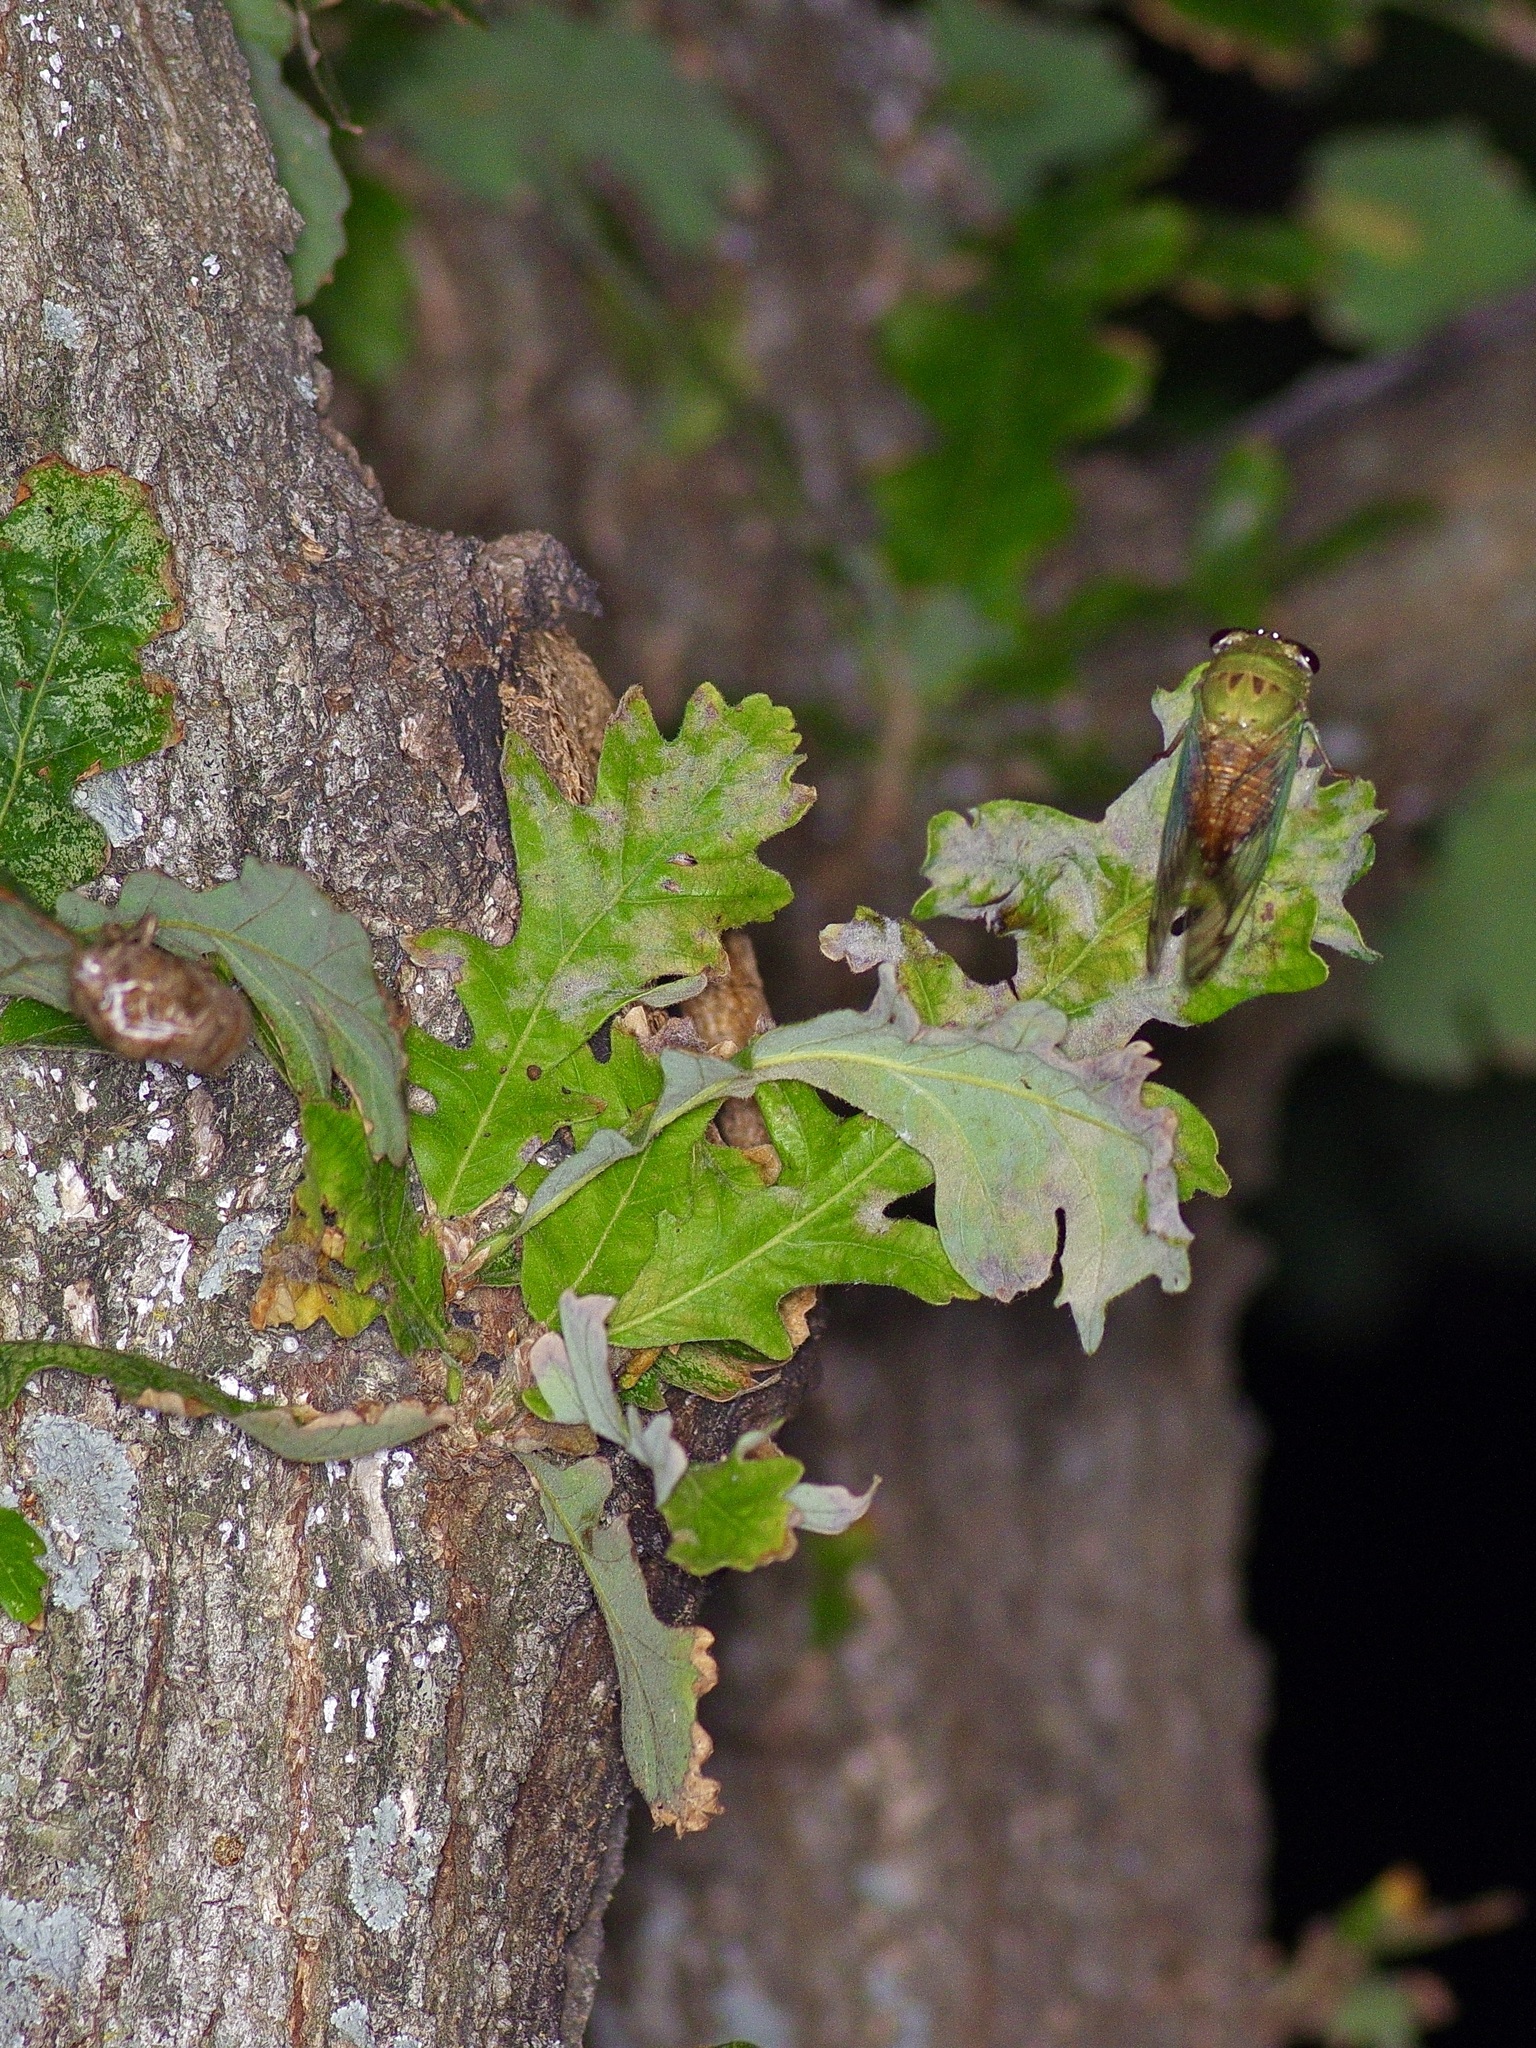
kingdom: Animalia
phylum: Arthropoda
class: Insecta
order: Hemiptera
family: Cicadidae
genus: Neotibicen
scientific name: Neotibicen superbus
